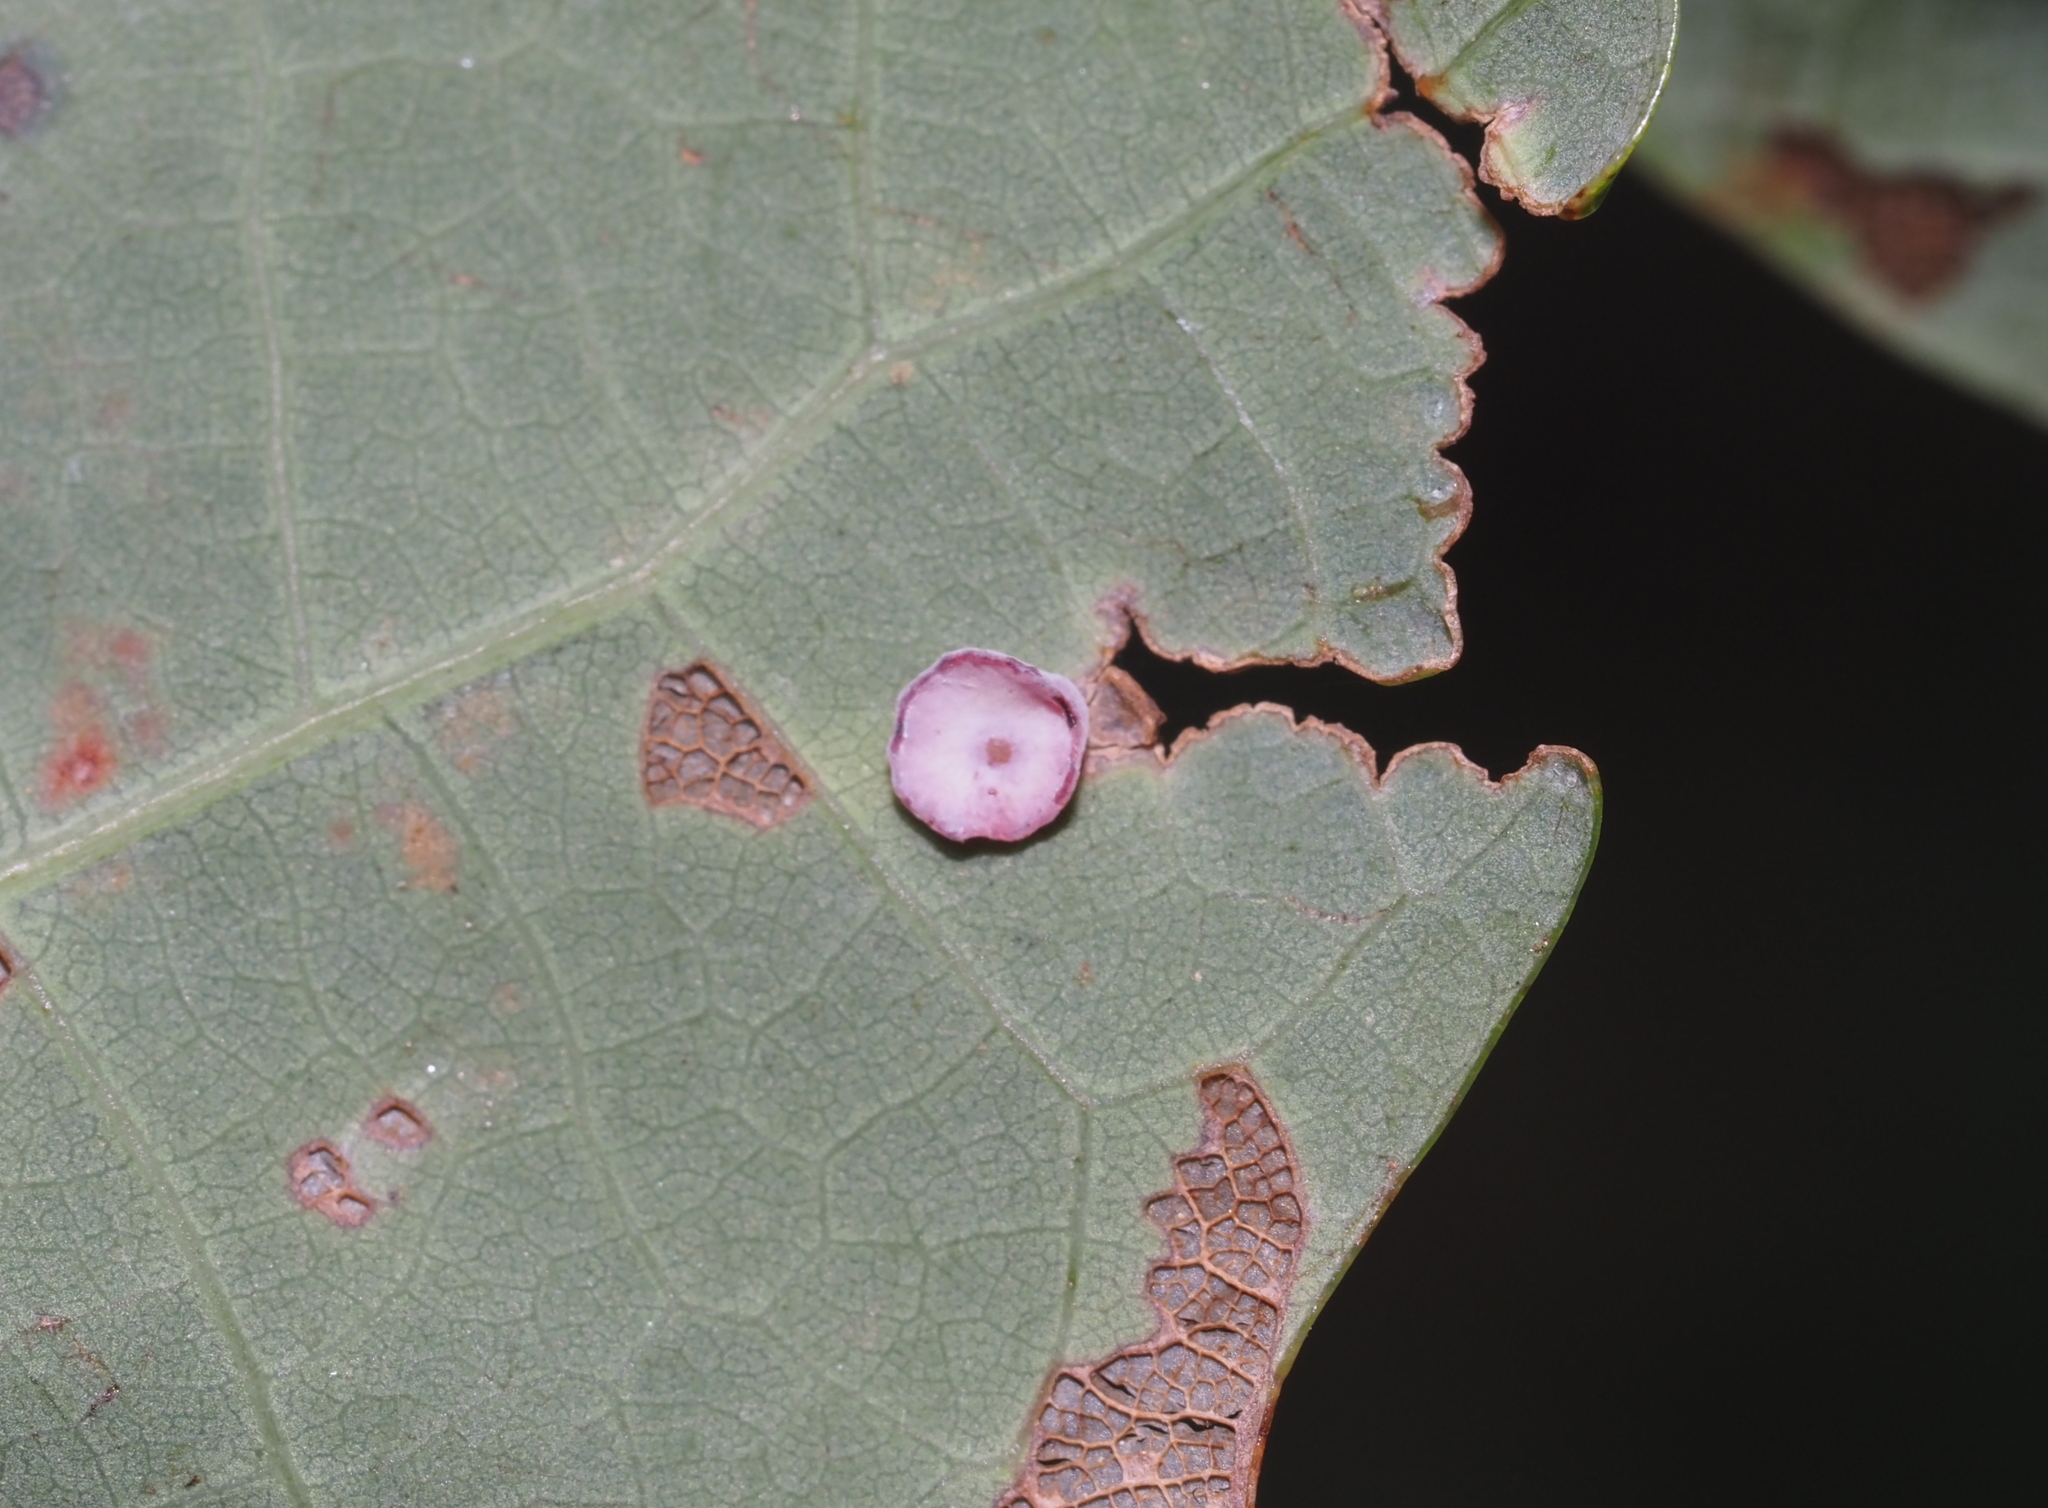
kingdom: Animalia
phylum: Arthropoda
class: Insecta
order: Hymenoptera
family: Cynipidae
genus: Phylloteras
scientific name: Phylloteras poculum
